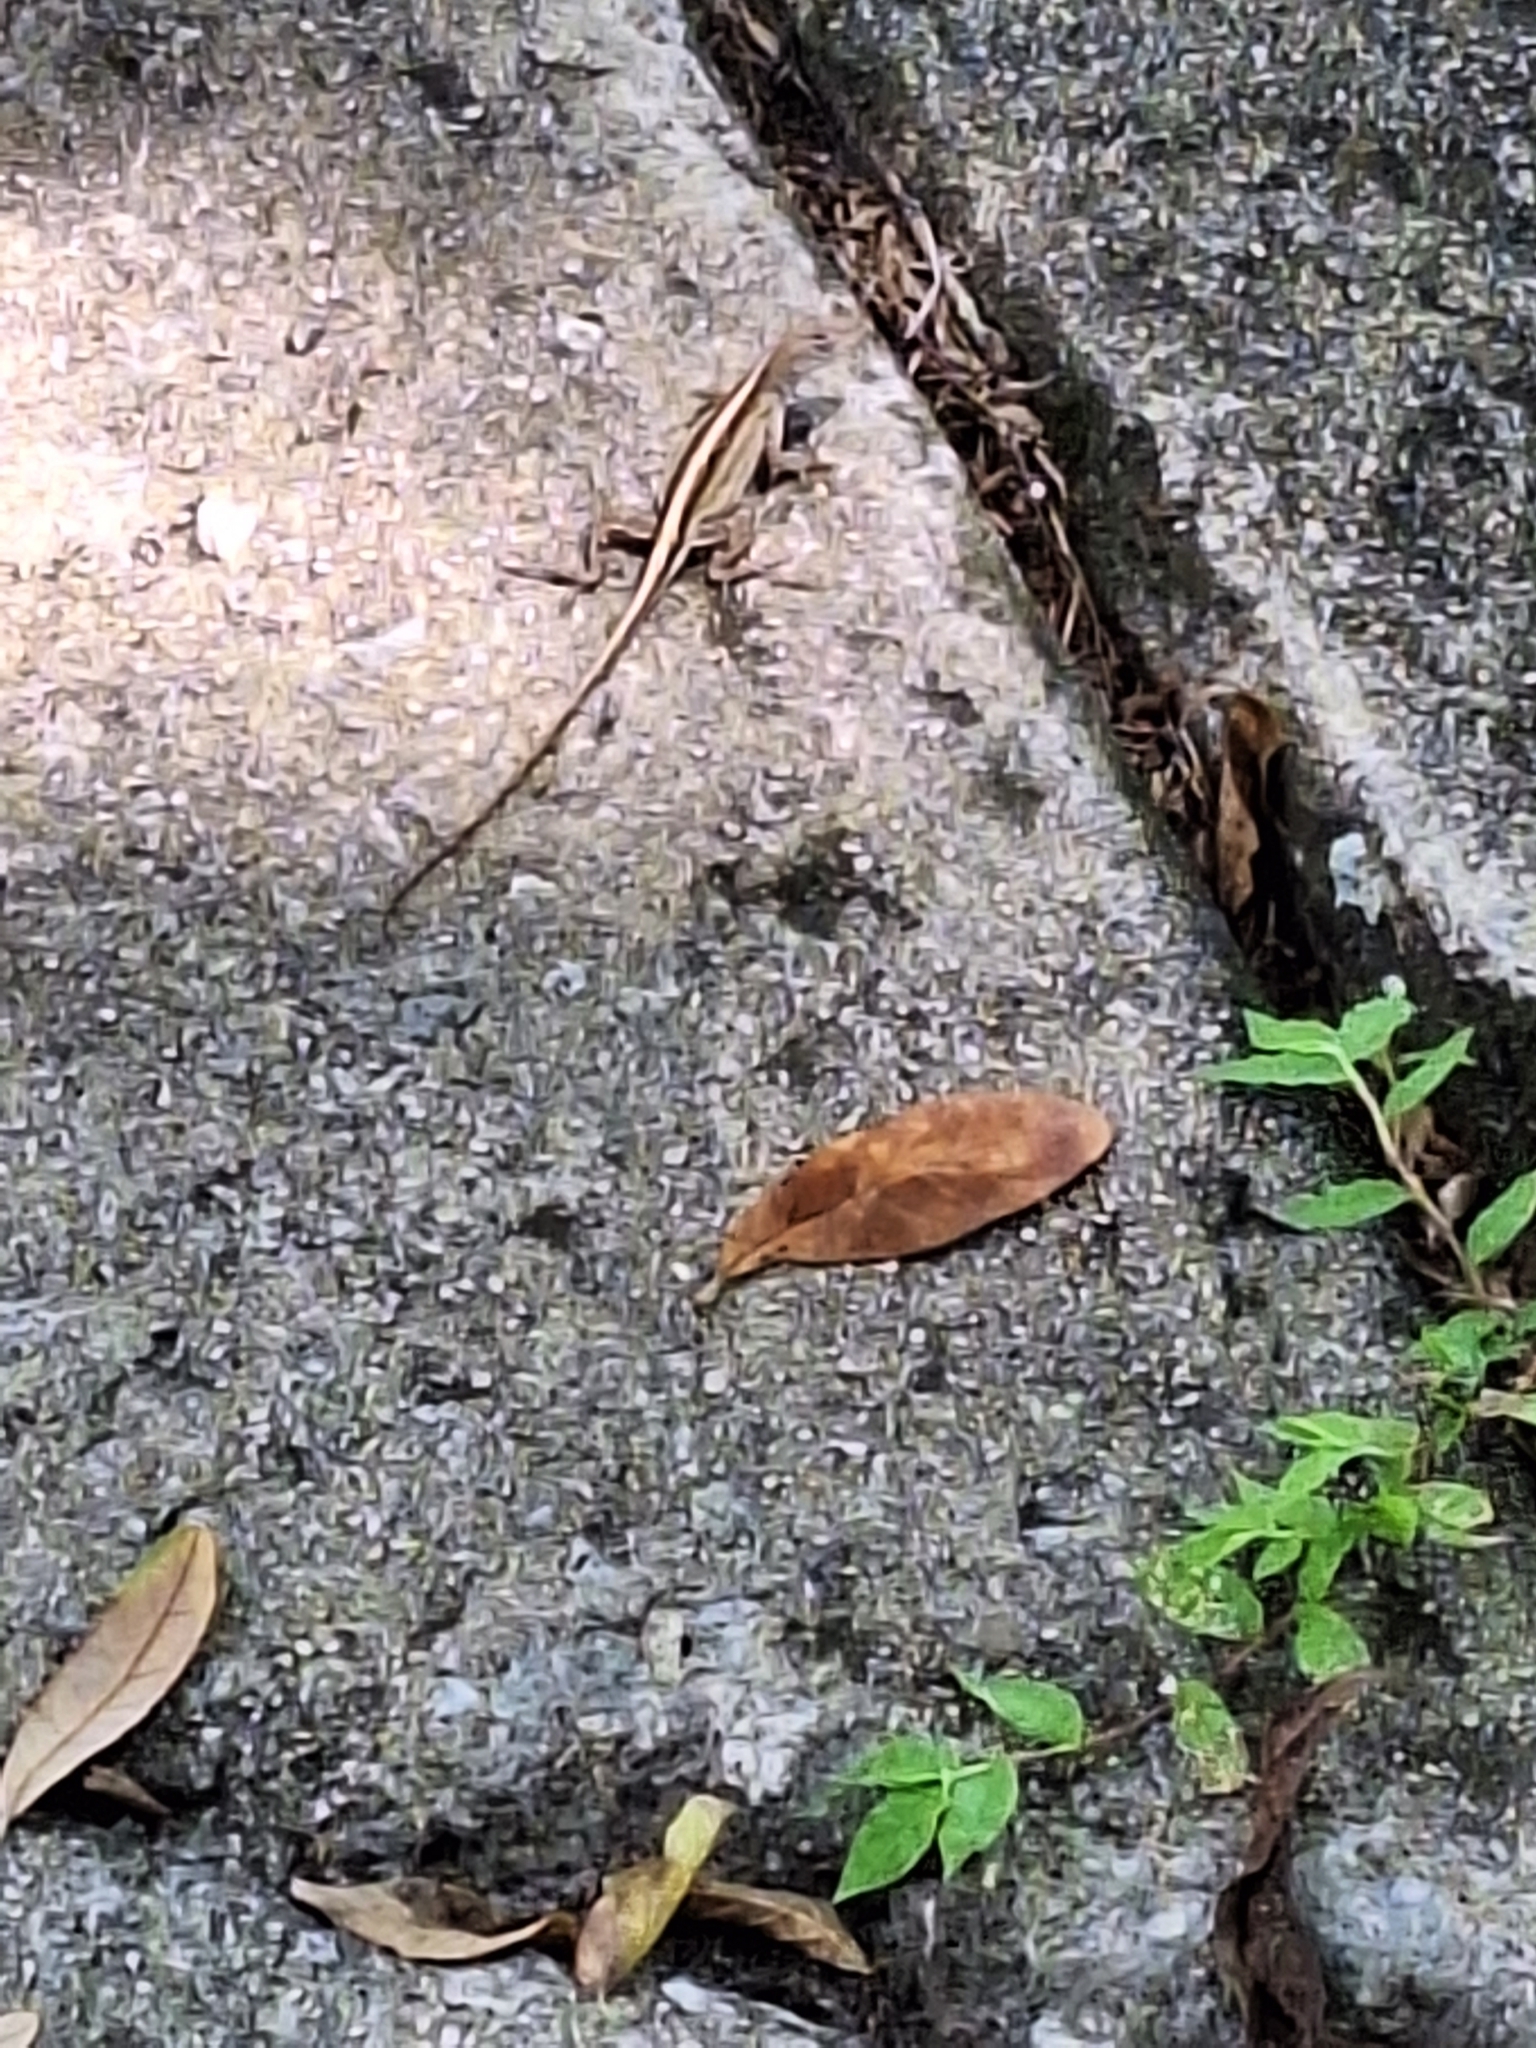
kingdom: Animalia
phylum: Chordata
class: Squamata
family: Dactyloidae
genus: Anolis
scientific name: Anolis sagrei
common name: Brown anole
